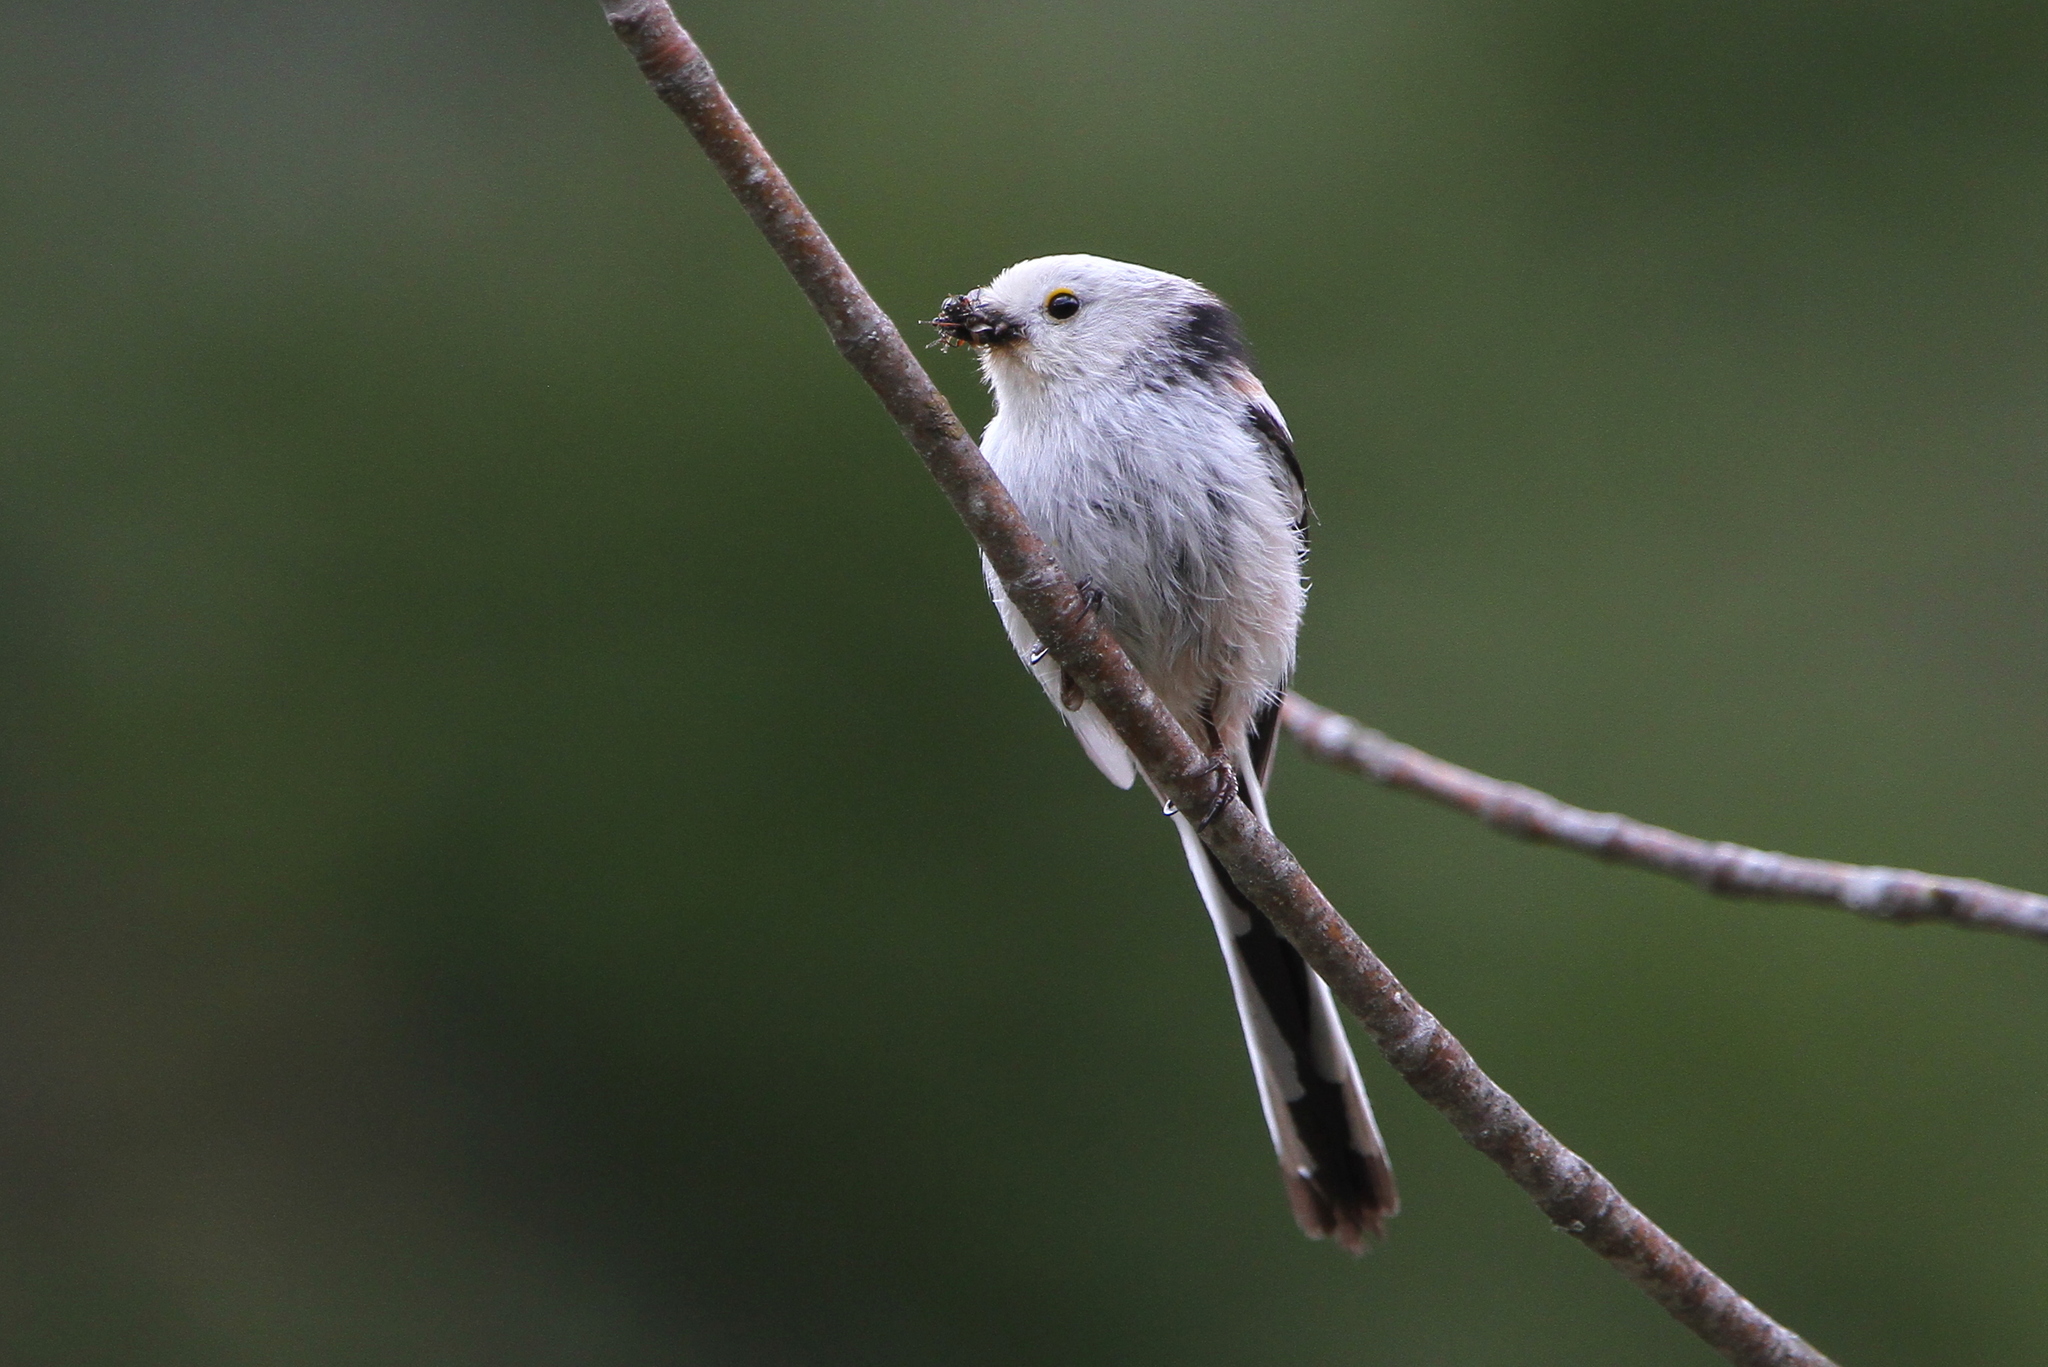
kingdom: Animalia
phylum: Chordata
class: Aves
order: Passeriformes
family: Aegithalidae
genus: Aegithalos
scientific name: Aegithalos caudatus
